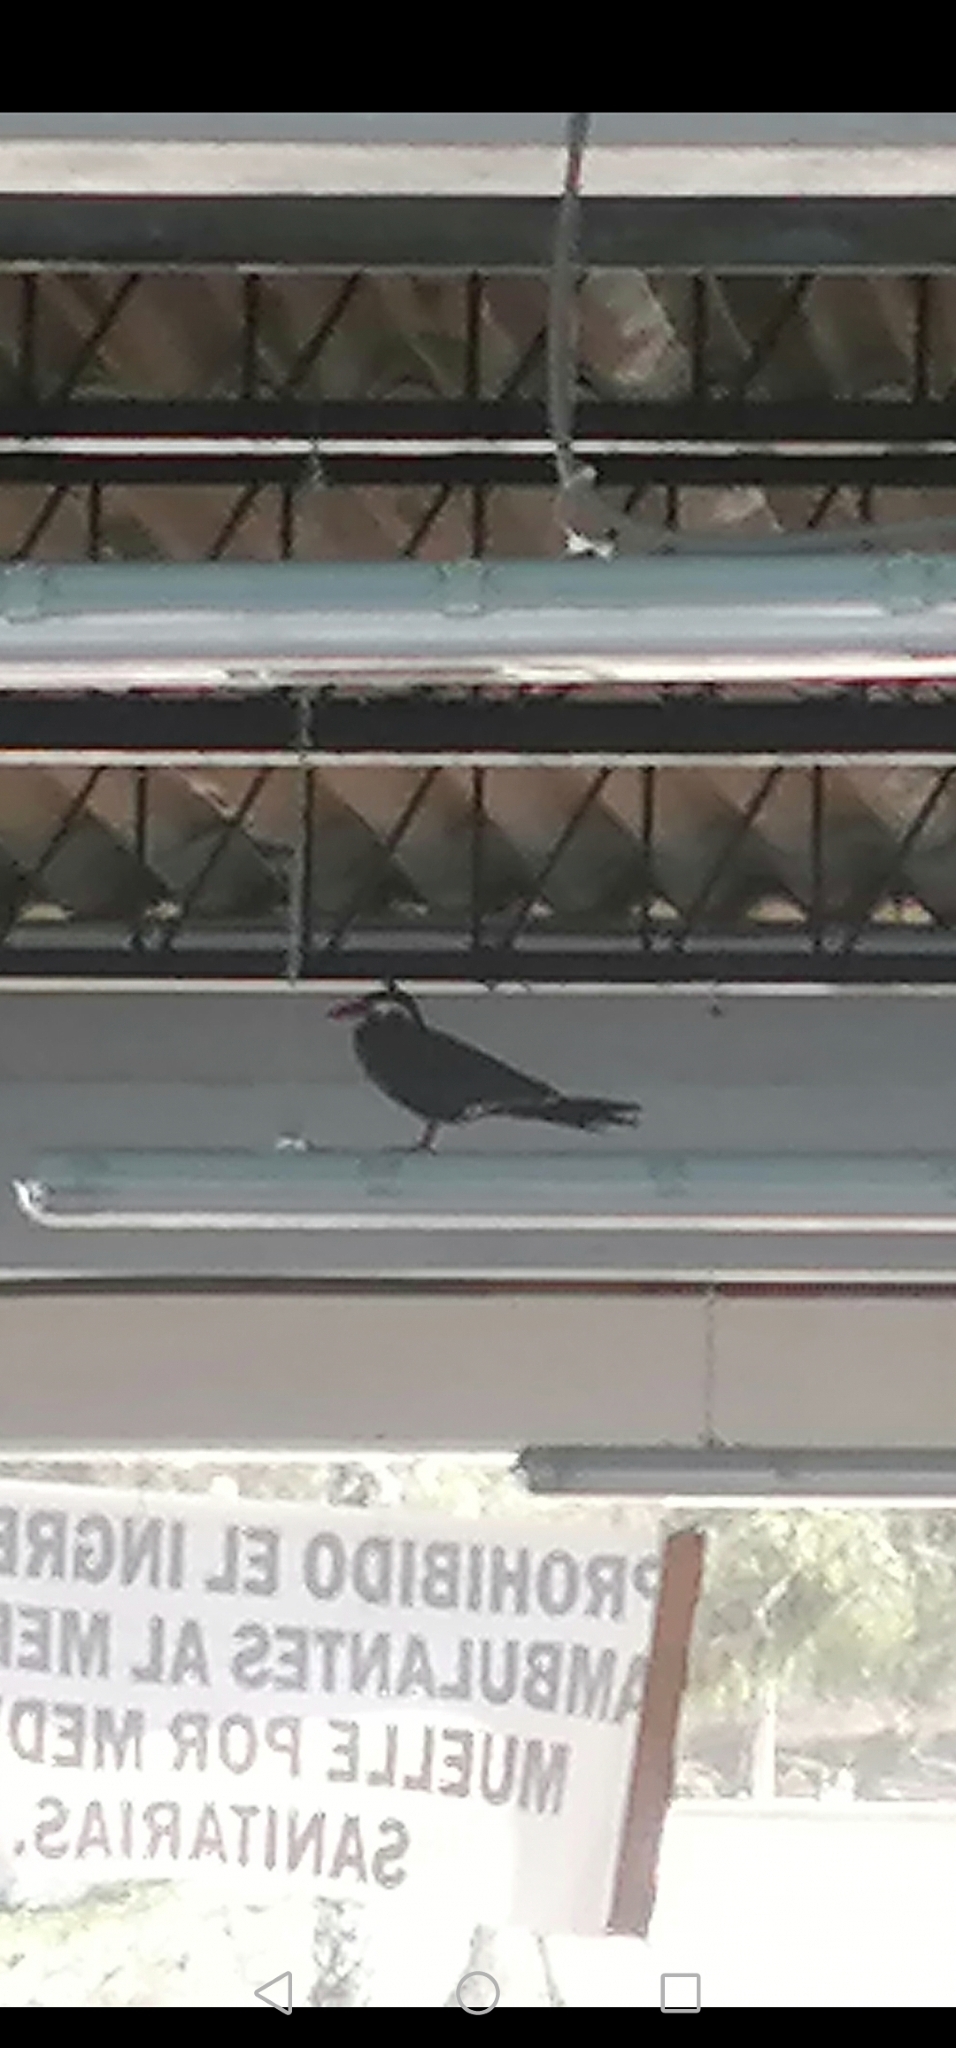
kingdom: Animalia
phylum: Chordata
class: Aves
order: Charadriiformes
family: Laridae
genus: Larosterna
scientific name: Larosterna inca
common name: Inca tern
